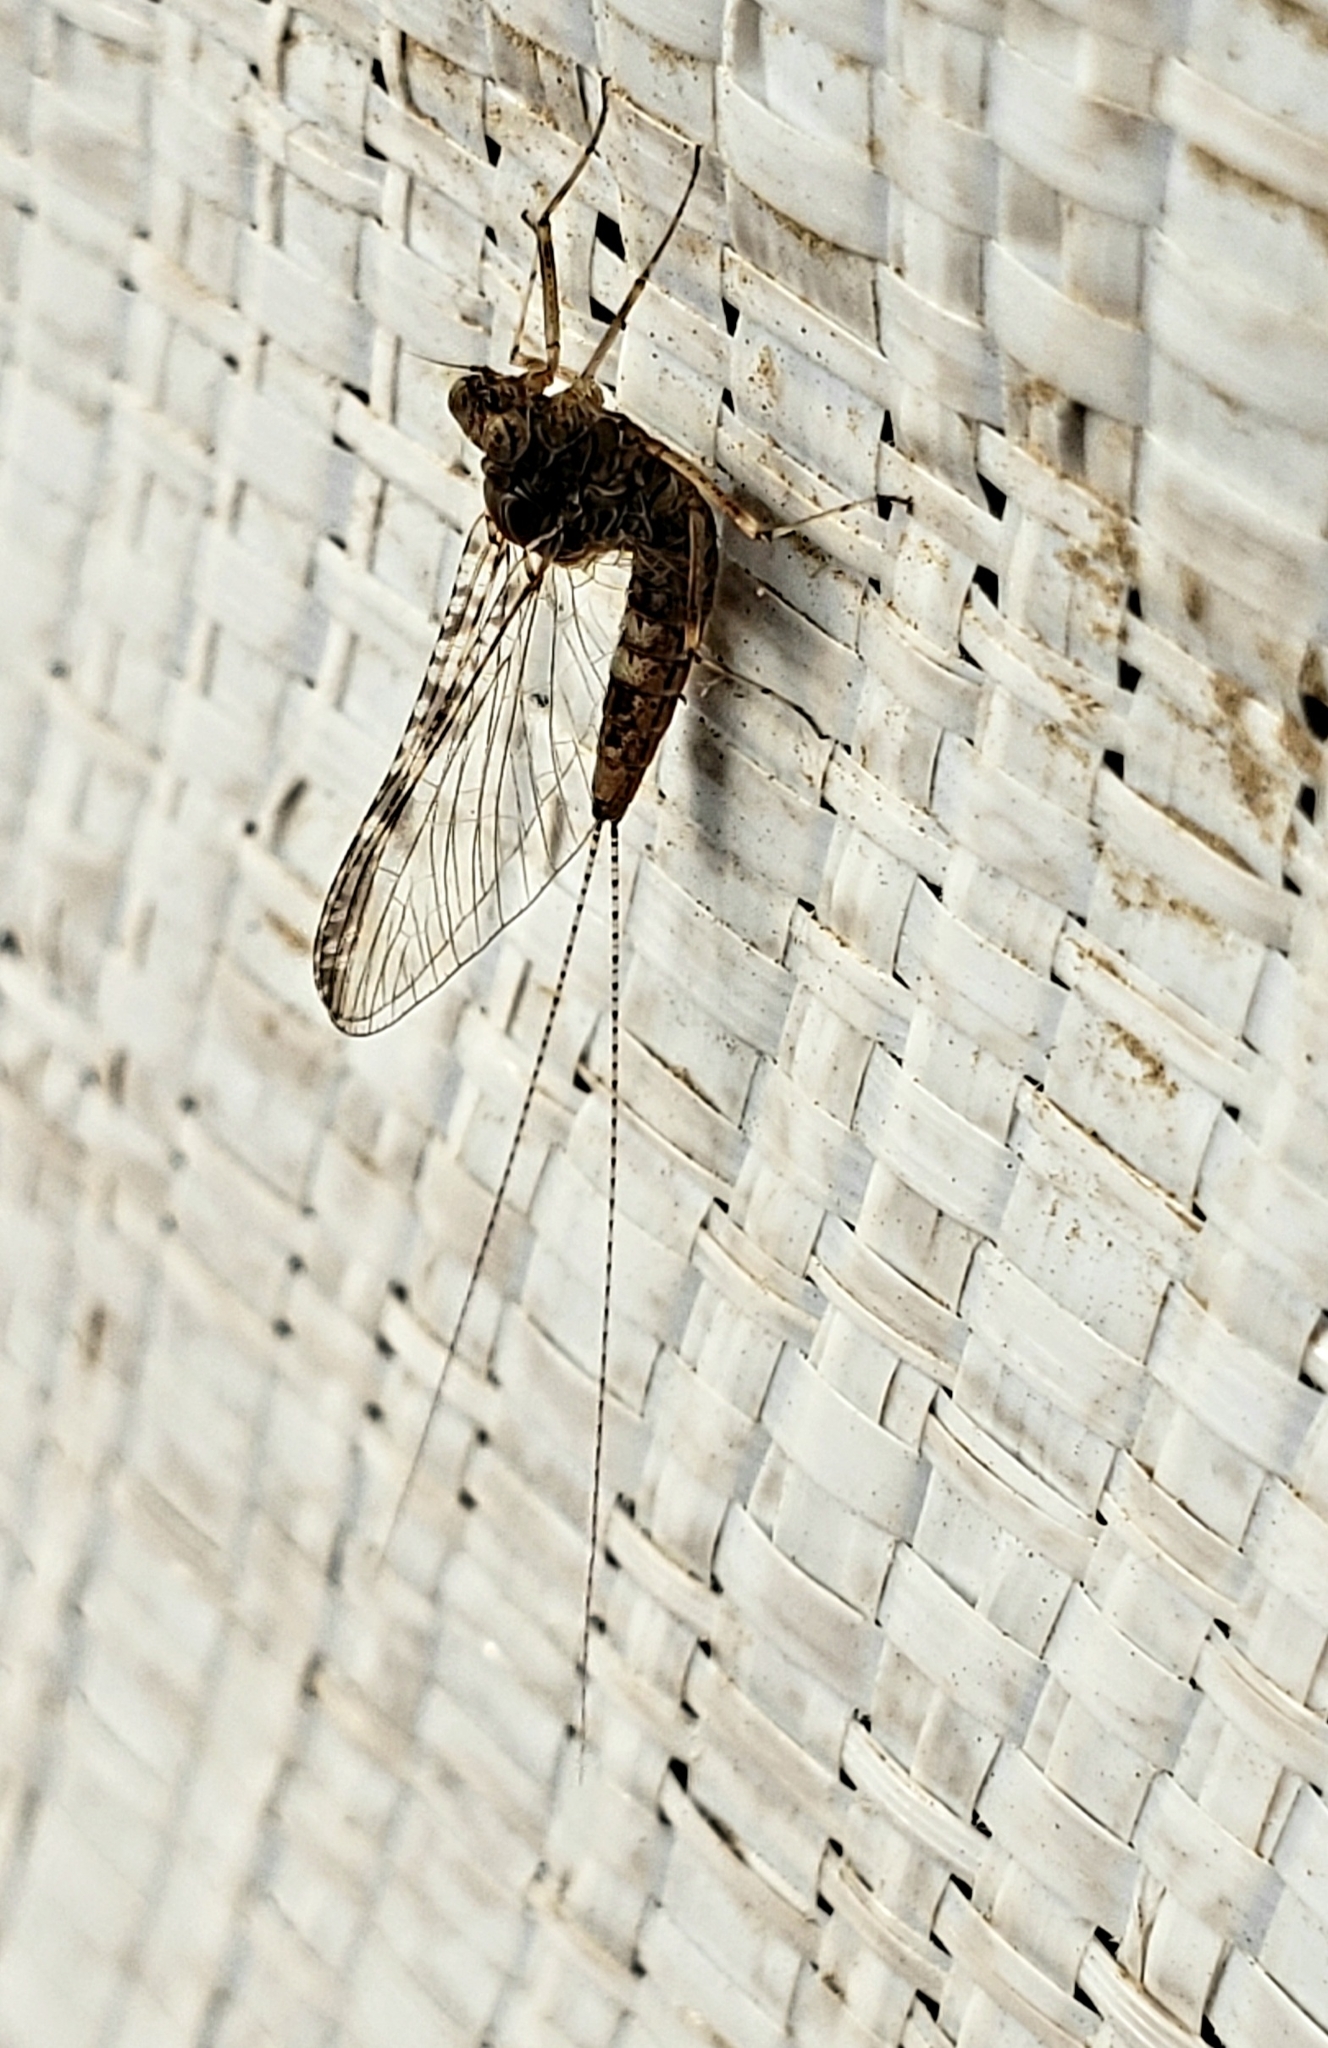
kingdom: Animalia
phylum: Arthropoda
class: Insecta
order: Ephemeroptera
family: Baetidae
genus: Callibaetis
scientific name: Callibaetis pictus
